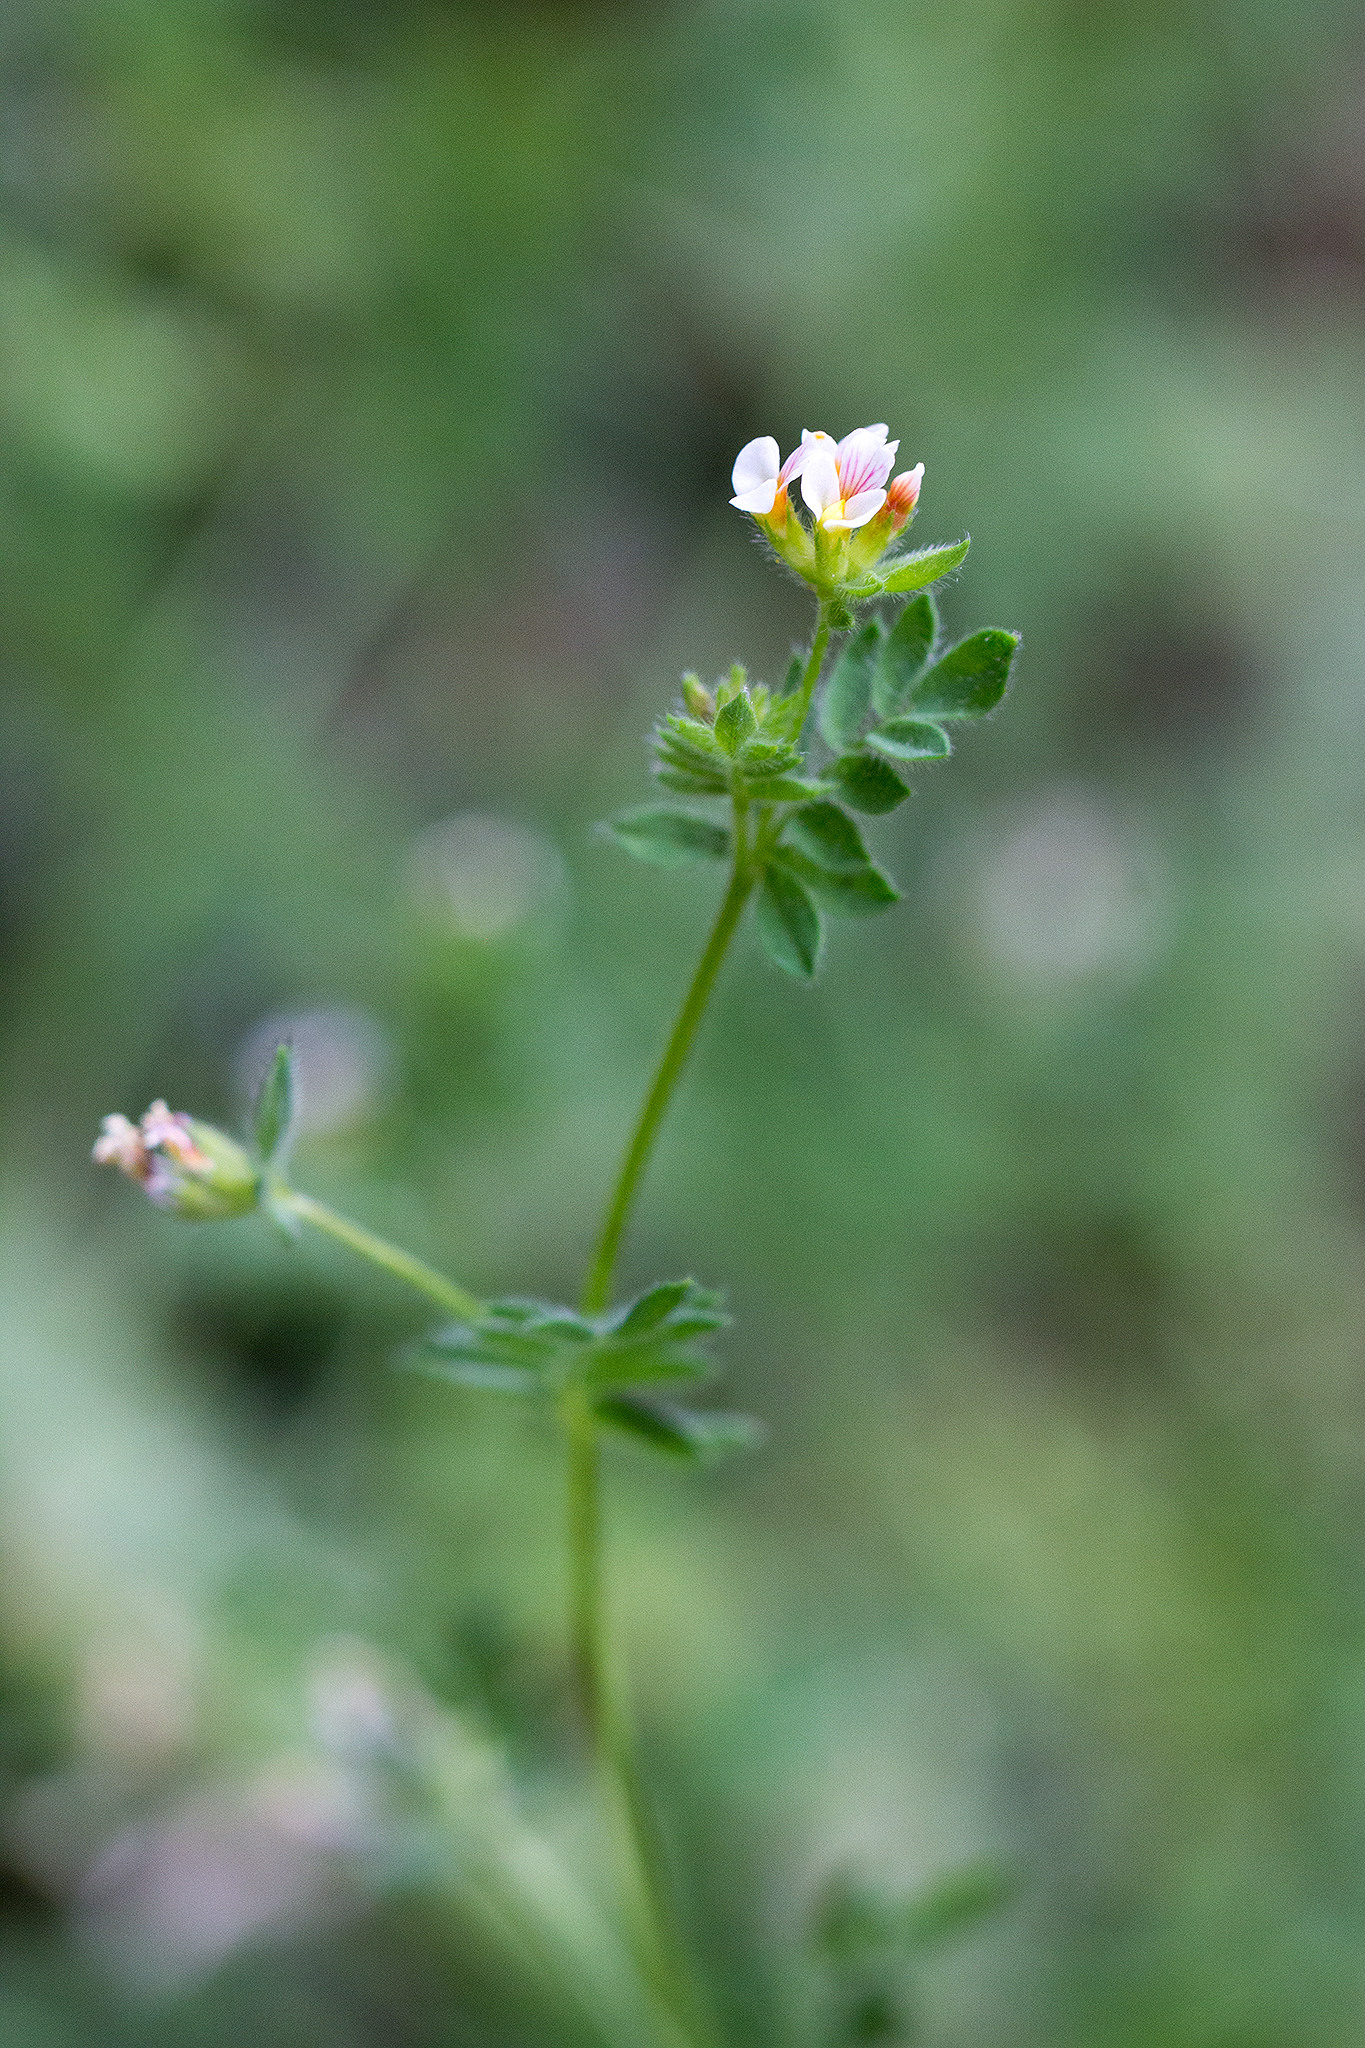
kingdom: Plantae
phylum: Tracheophyta
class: Magnoliopsida
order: Fabales
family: Fabaceae
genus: Ornithopus
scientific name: Ornithopus perpusillus
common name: Bird's-foot
